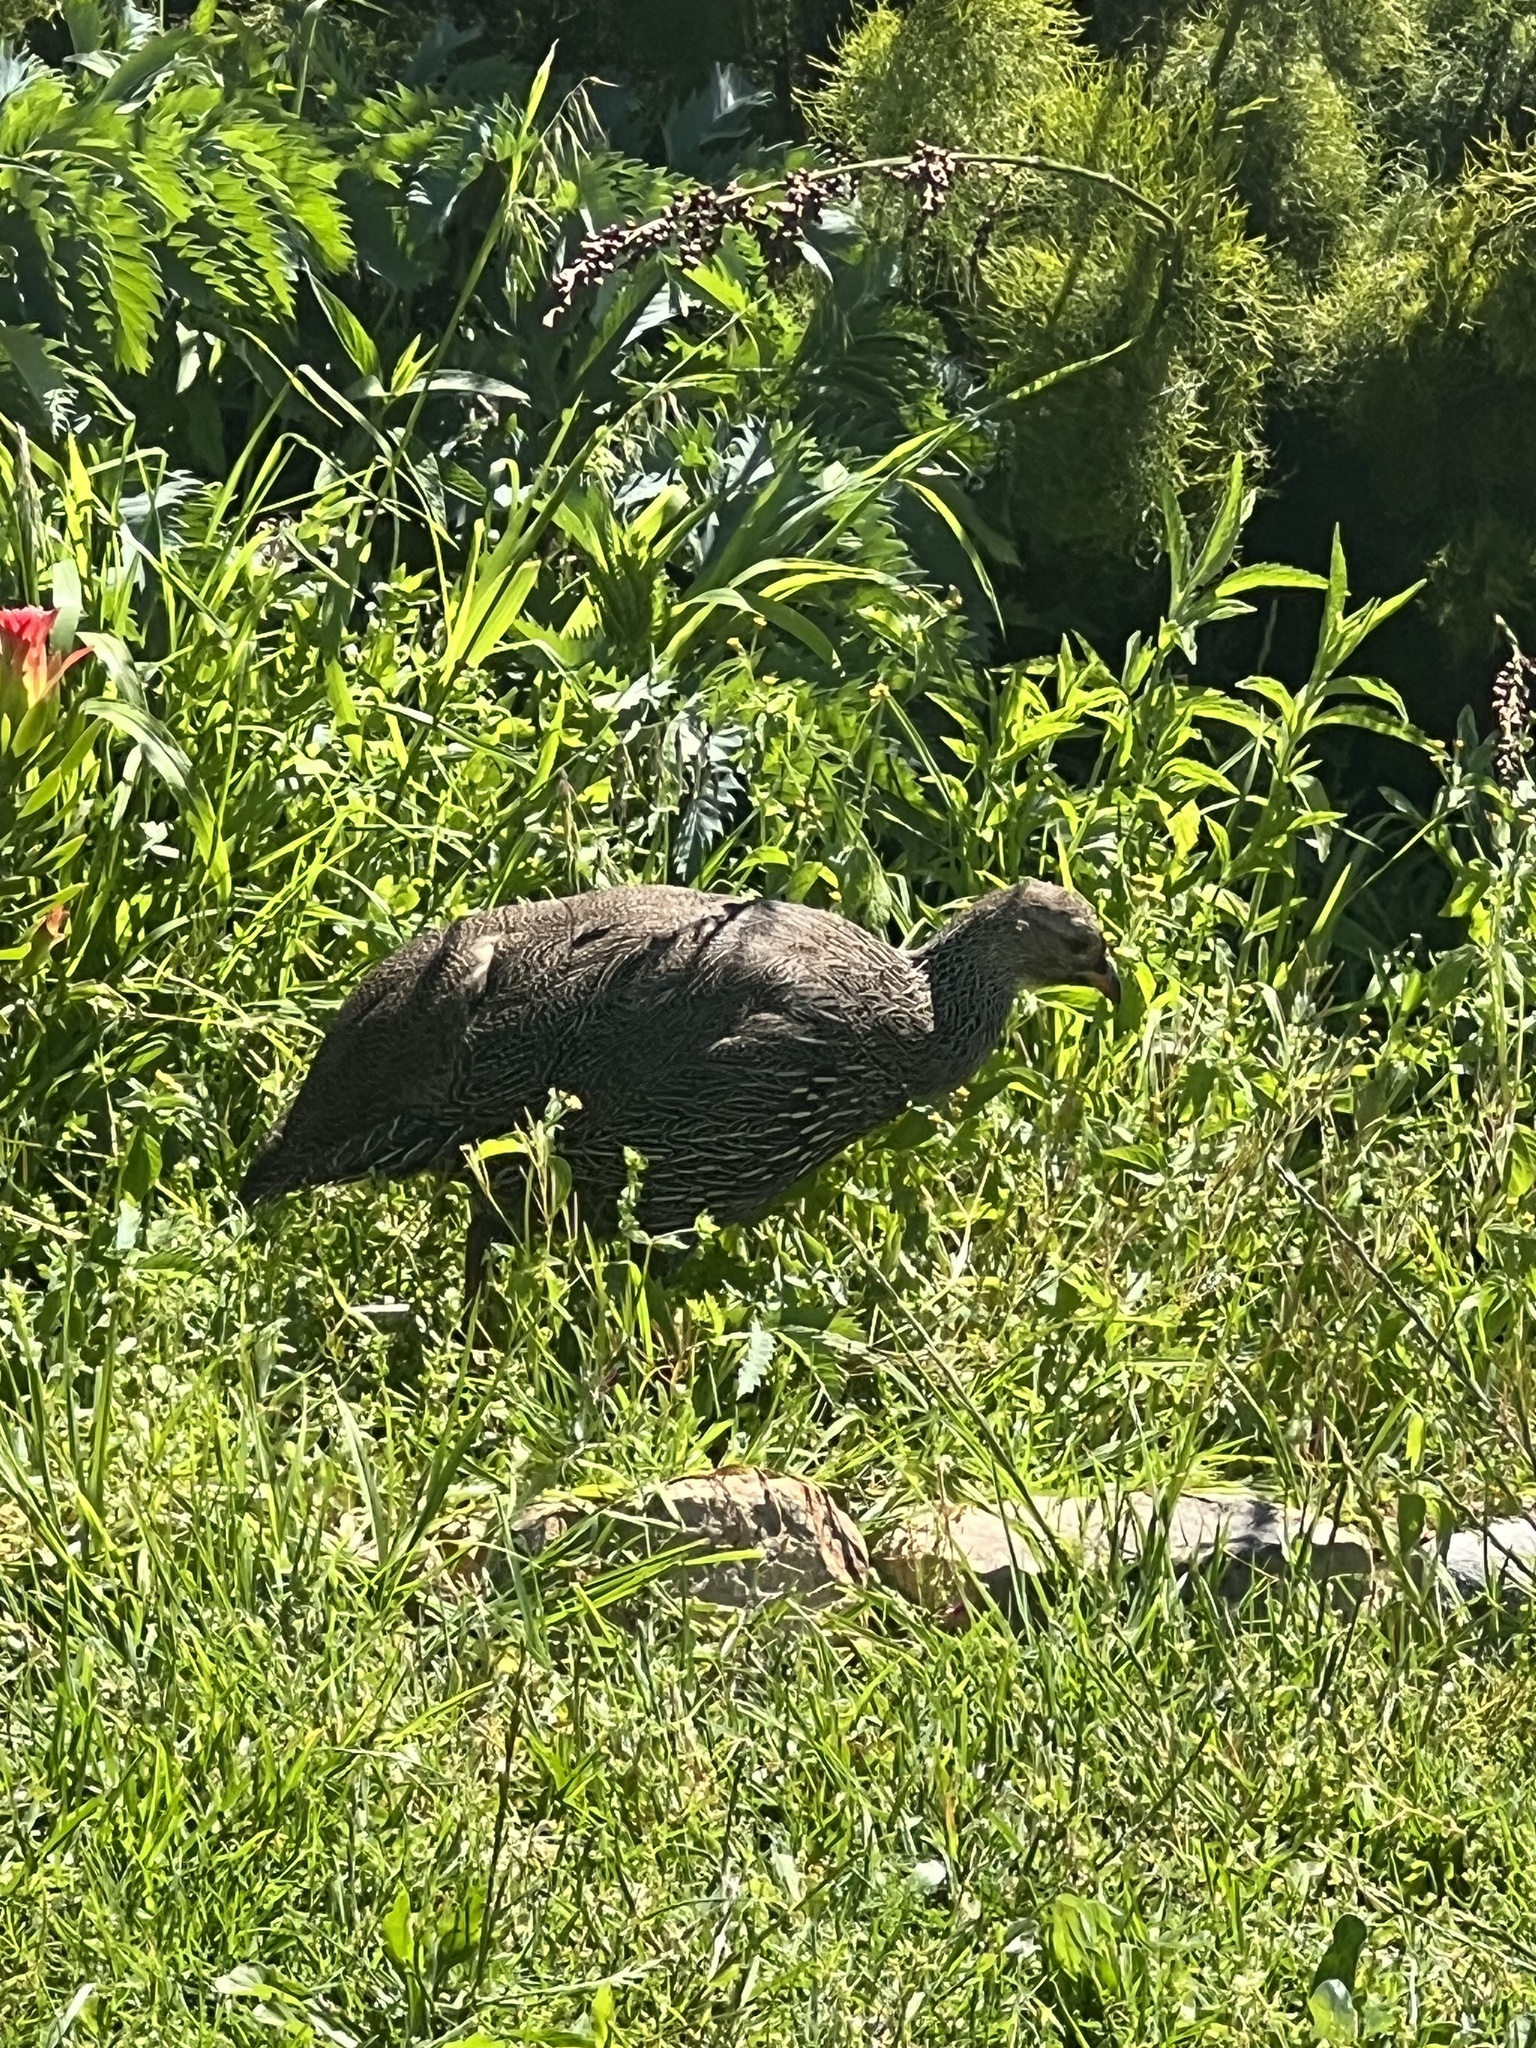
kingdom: Animalia
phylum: Chordata
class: Aves
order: Galliformes
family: Phasianidae
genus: Pternistis
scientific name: Pternistis capensis
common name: Cape spurfowl
